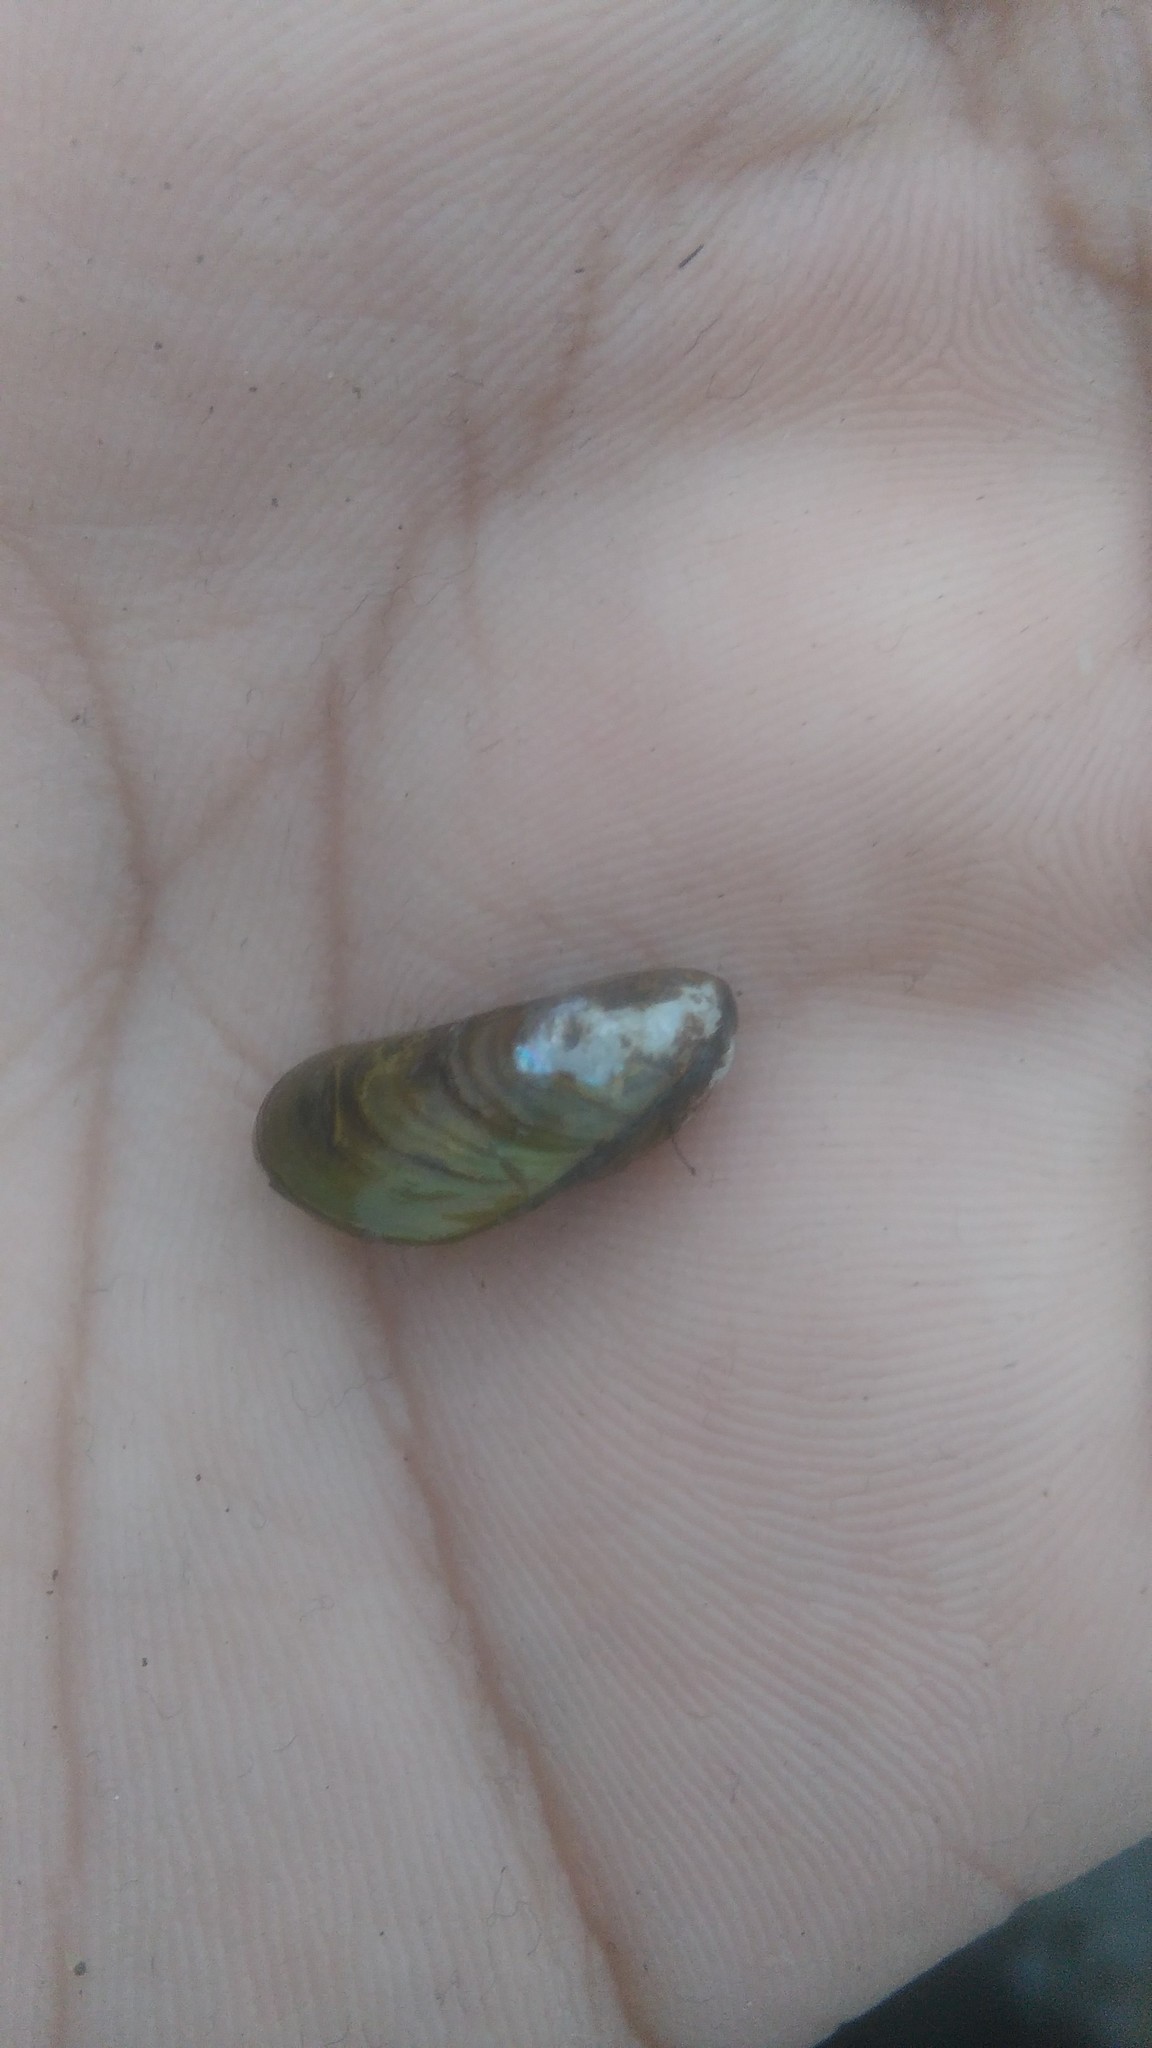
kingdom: Animalia
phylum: Mollusca
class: Bivalvia
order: Mytilida
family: Mytilidae
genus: Limnoperna
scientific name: Limnoperna fortunei
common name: Golden mussel
